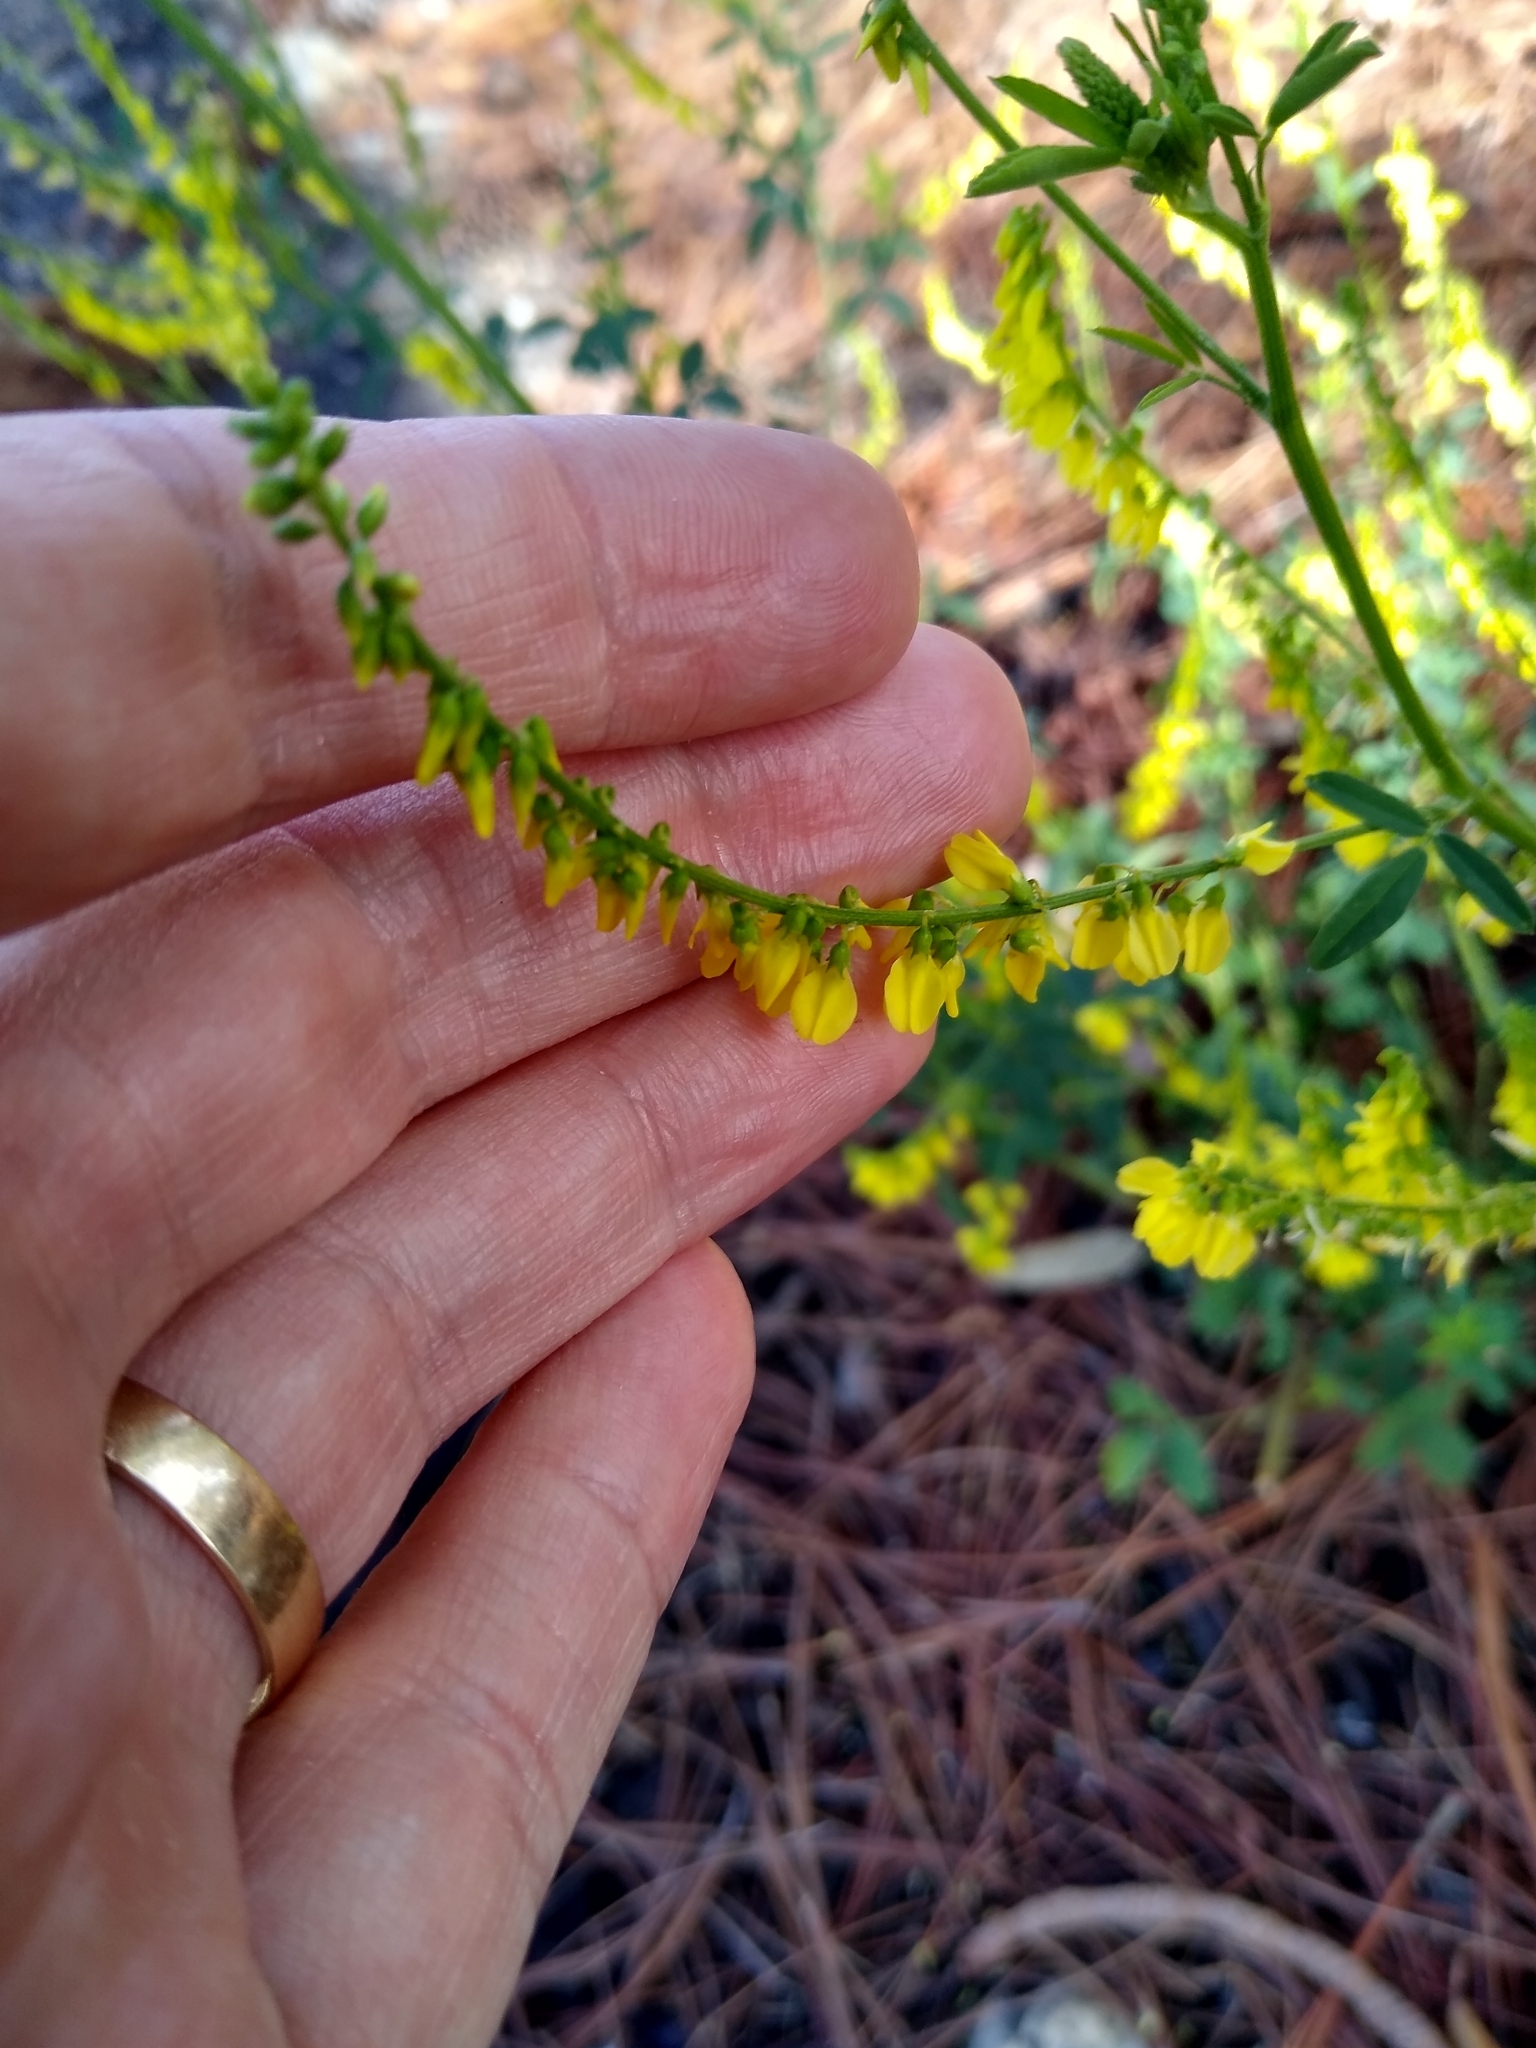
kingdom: Plantae
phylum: Tracheophyta
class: Magnoliopsida
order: Fabales
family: Fabaceae
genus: Melilotus
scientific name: Melilotus officinalis
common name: Sweetclover
